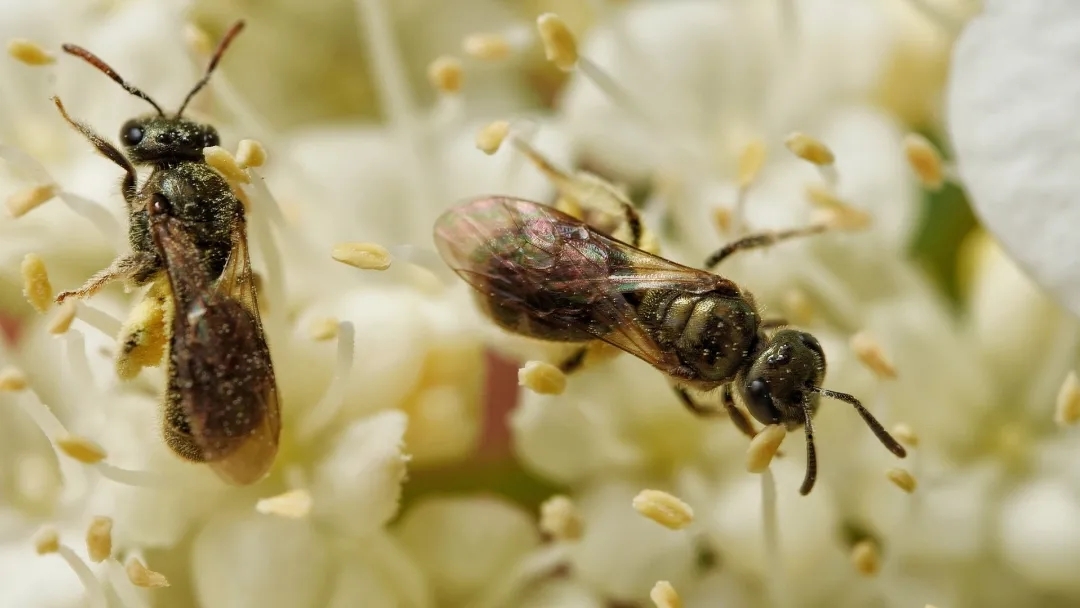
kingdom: Animalia
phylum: Arthropoda
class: Insecta
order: Hymenoptera
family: Halictidae
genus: Dialictus
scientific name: Dialictus
